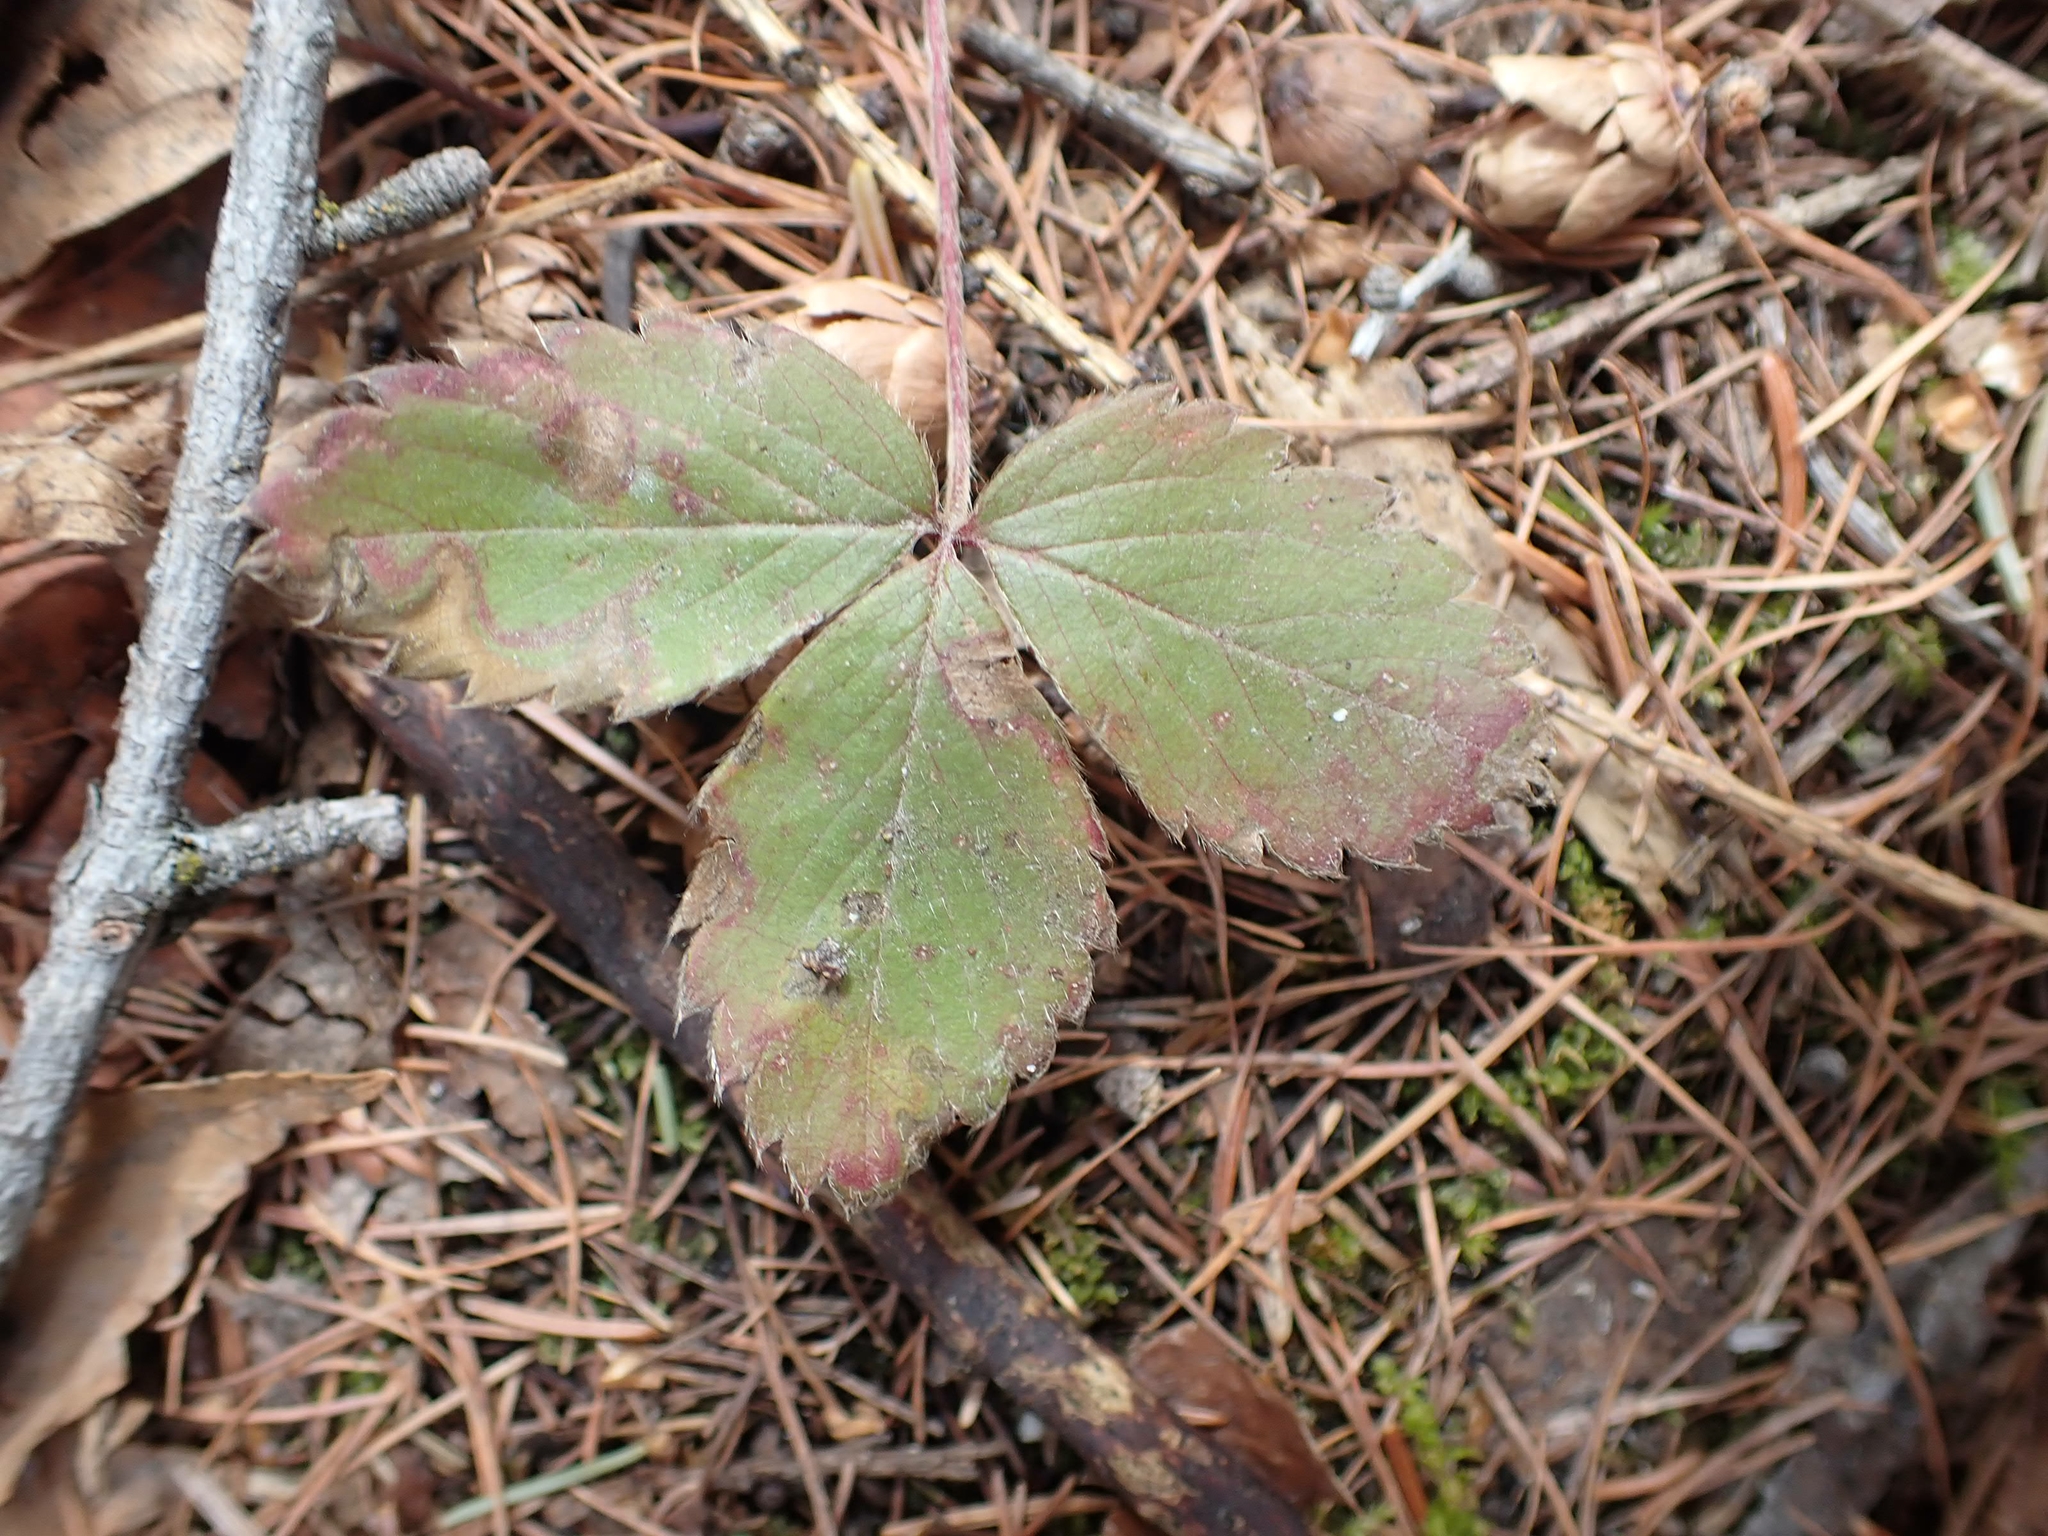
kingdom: Plantae
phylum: Tracheophyta
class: Magnoliopsida
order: Rosales
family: Rosaceae
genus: Fragaria
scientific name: Fragaria virginiana
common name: Thickleaved wild strawberry
